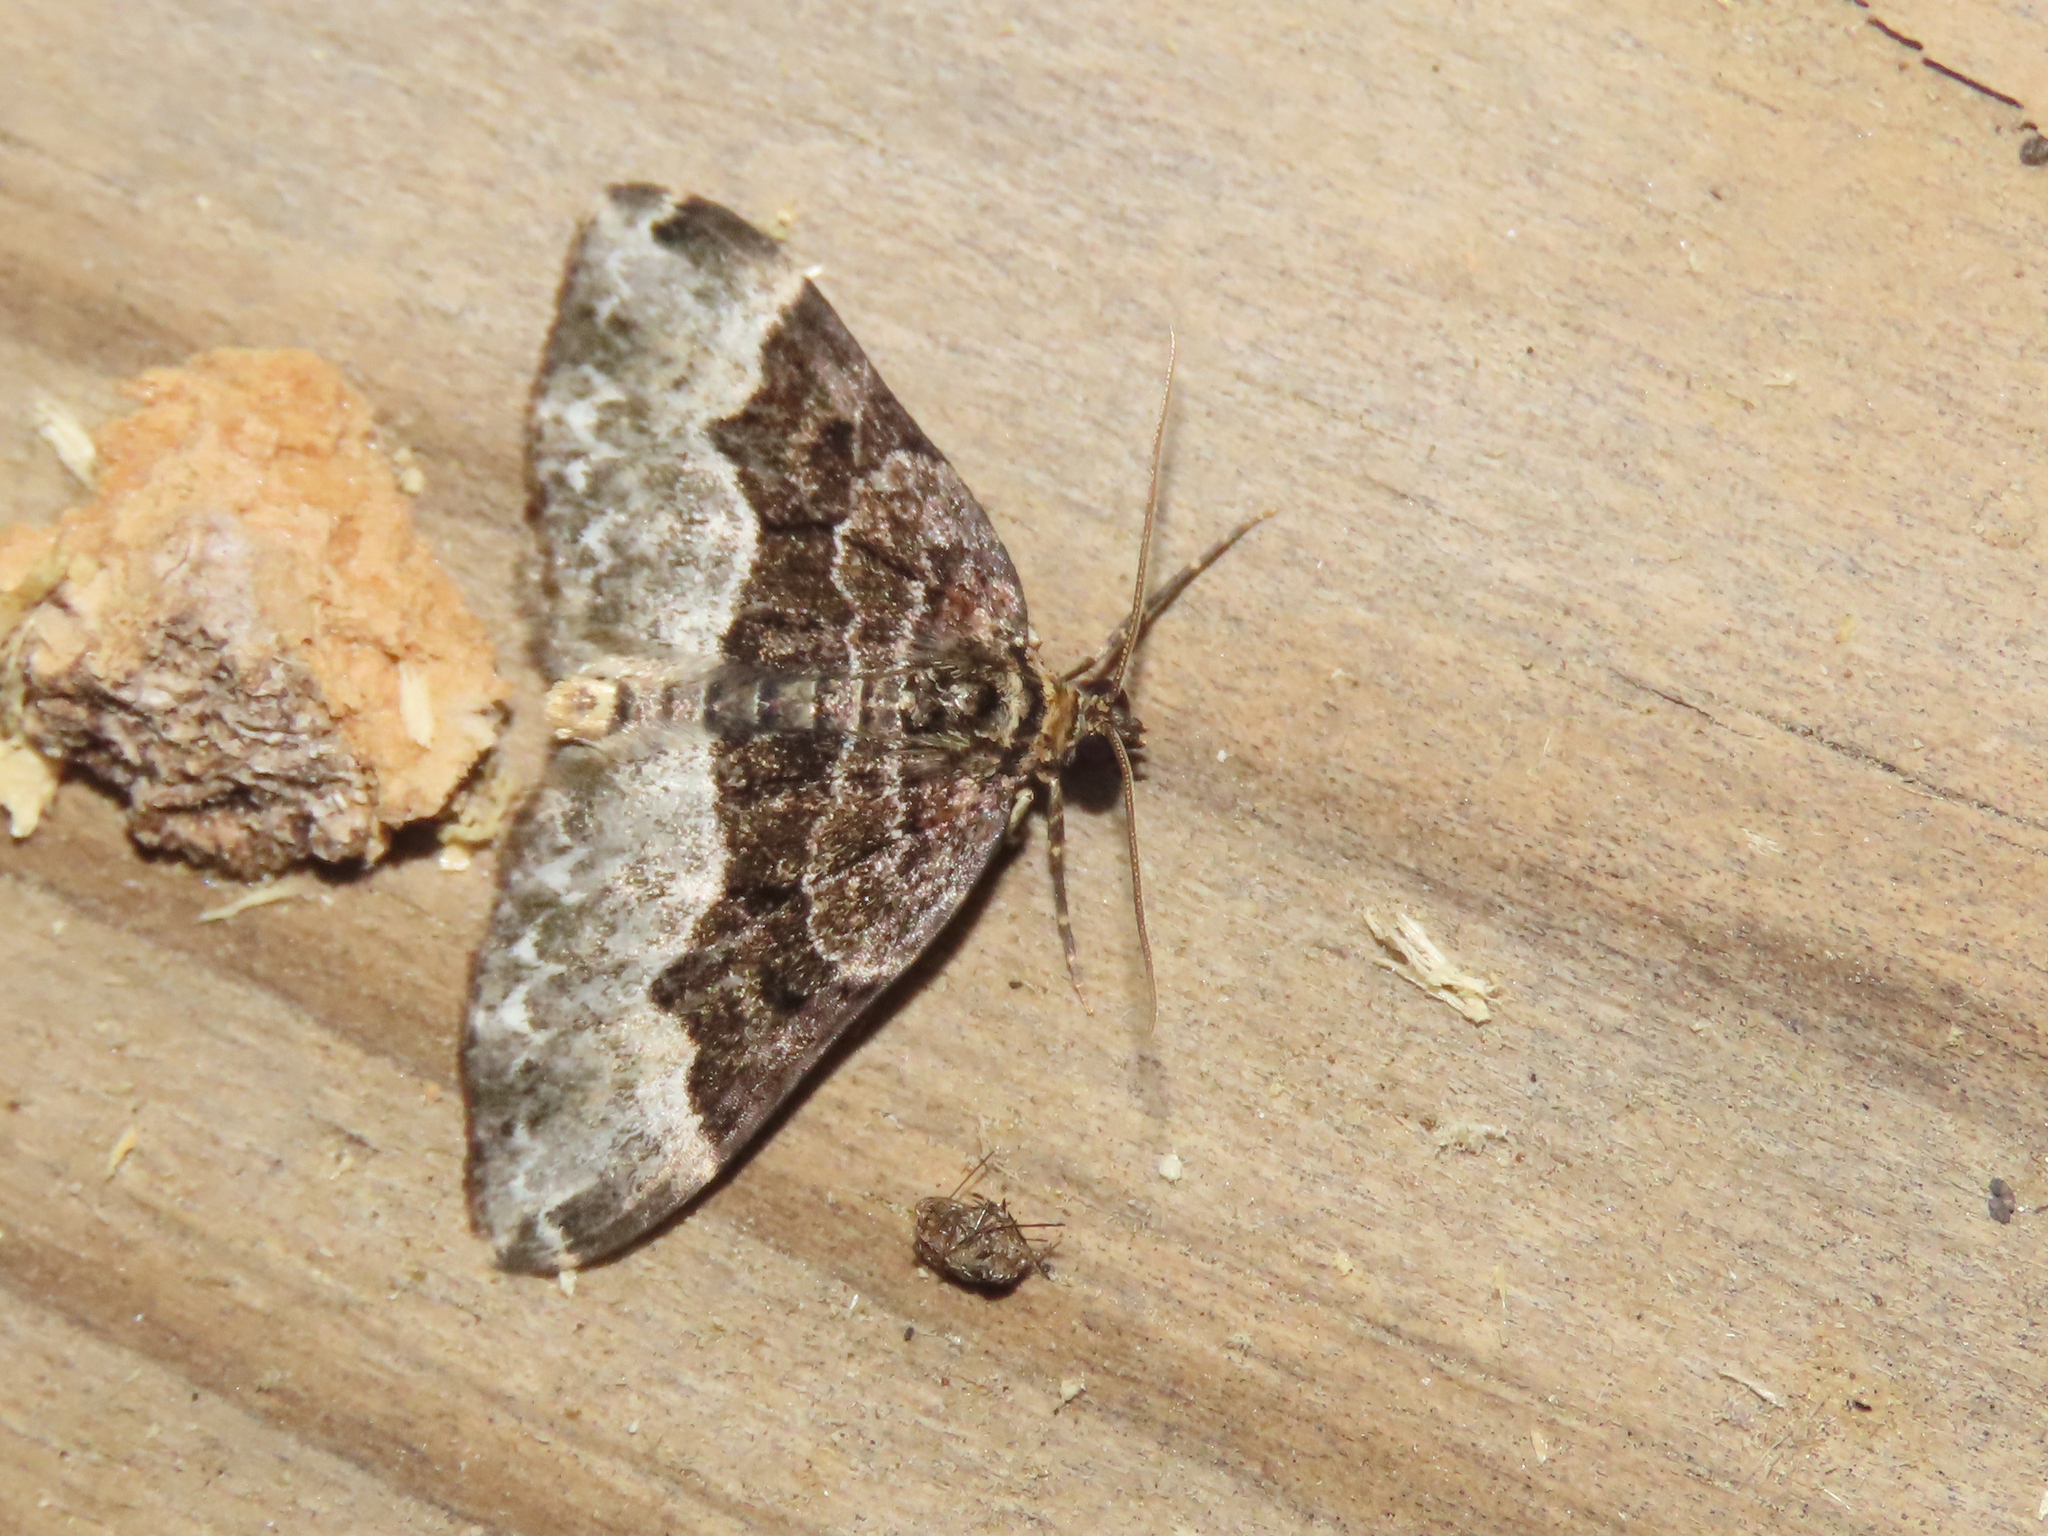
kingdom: Animalia
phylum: Arthropoda
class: Insecta
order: Lepidoptera
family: Geometridae
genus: Euphyia
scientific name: Euphyia intermediata
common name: Sharp-angled carpet
